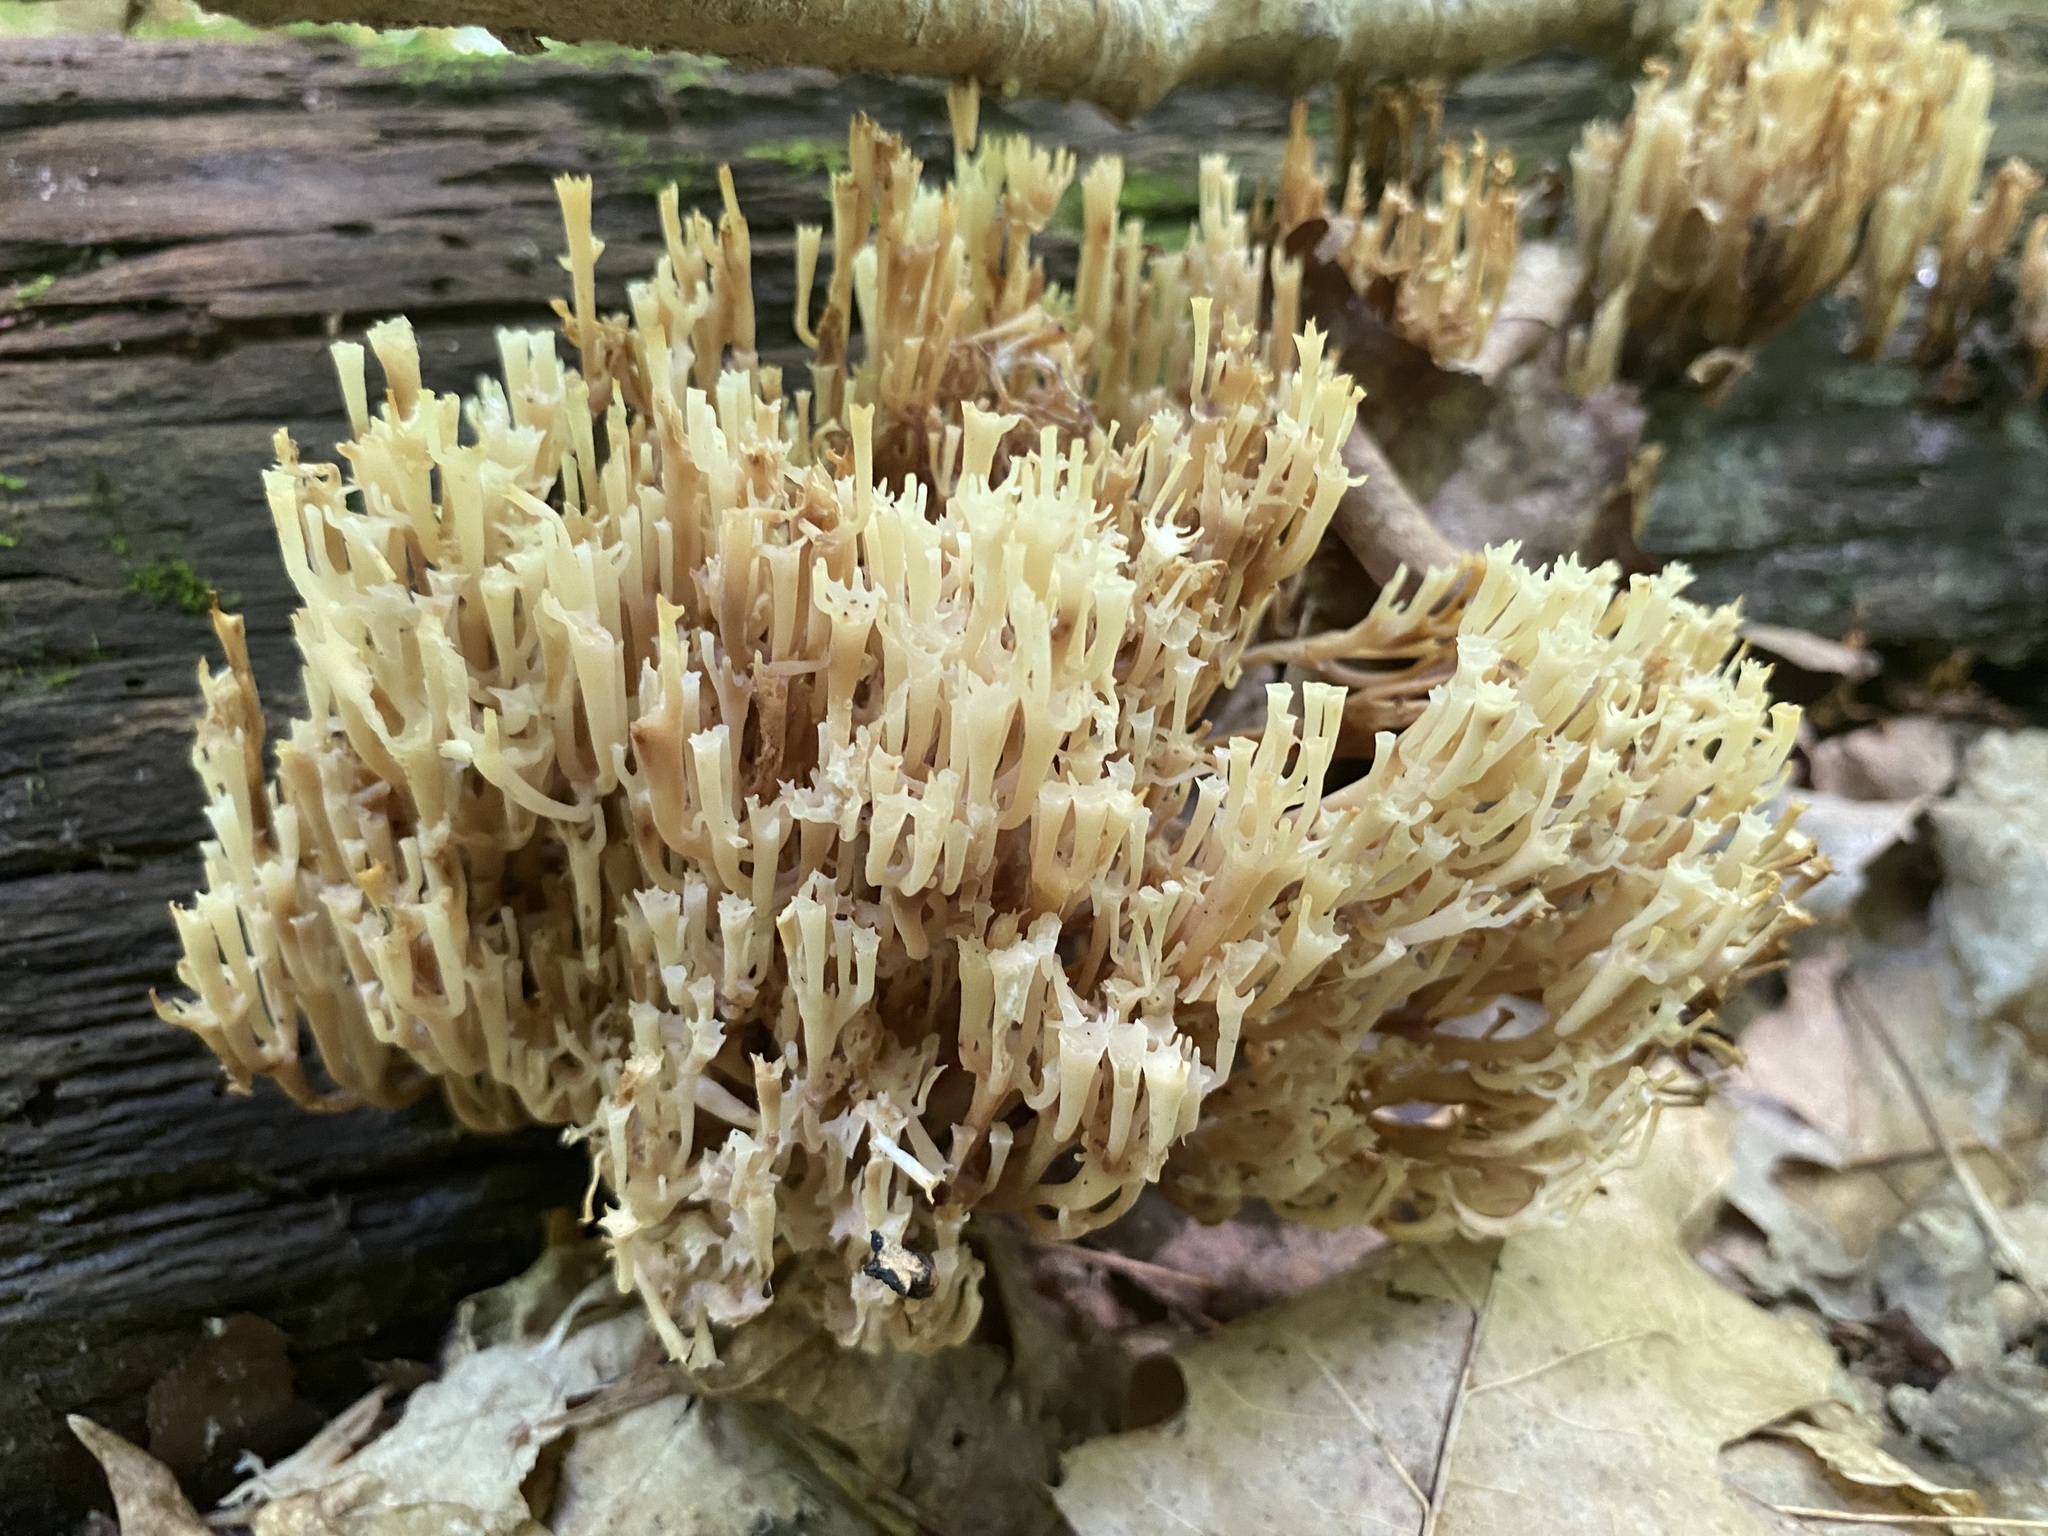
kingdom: Fungi
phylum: Basidiomycota
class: Agaricomycetes
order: Russulales
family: Auriscalpiaceae
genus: Artomyces
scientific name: Artomyces pyxidatus
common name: Crown-tipped coral fungus
